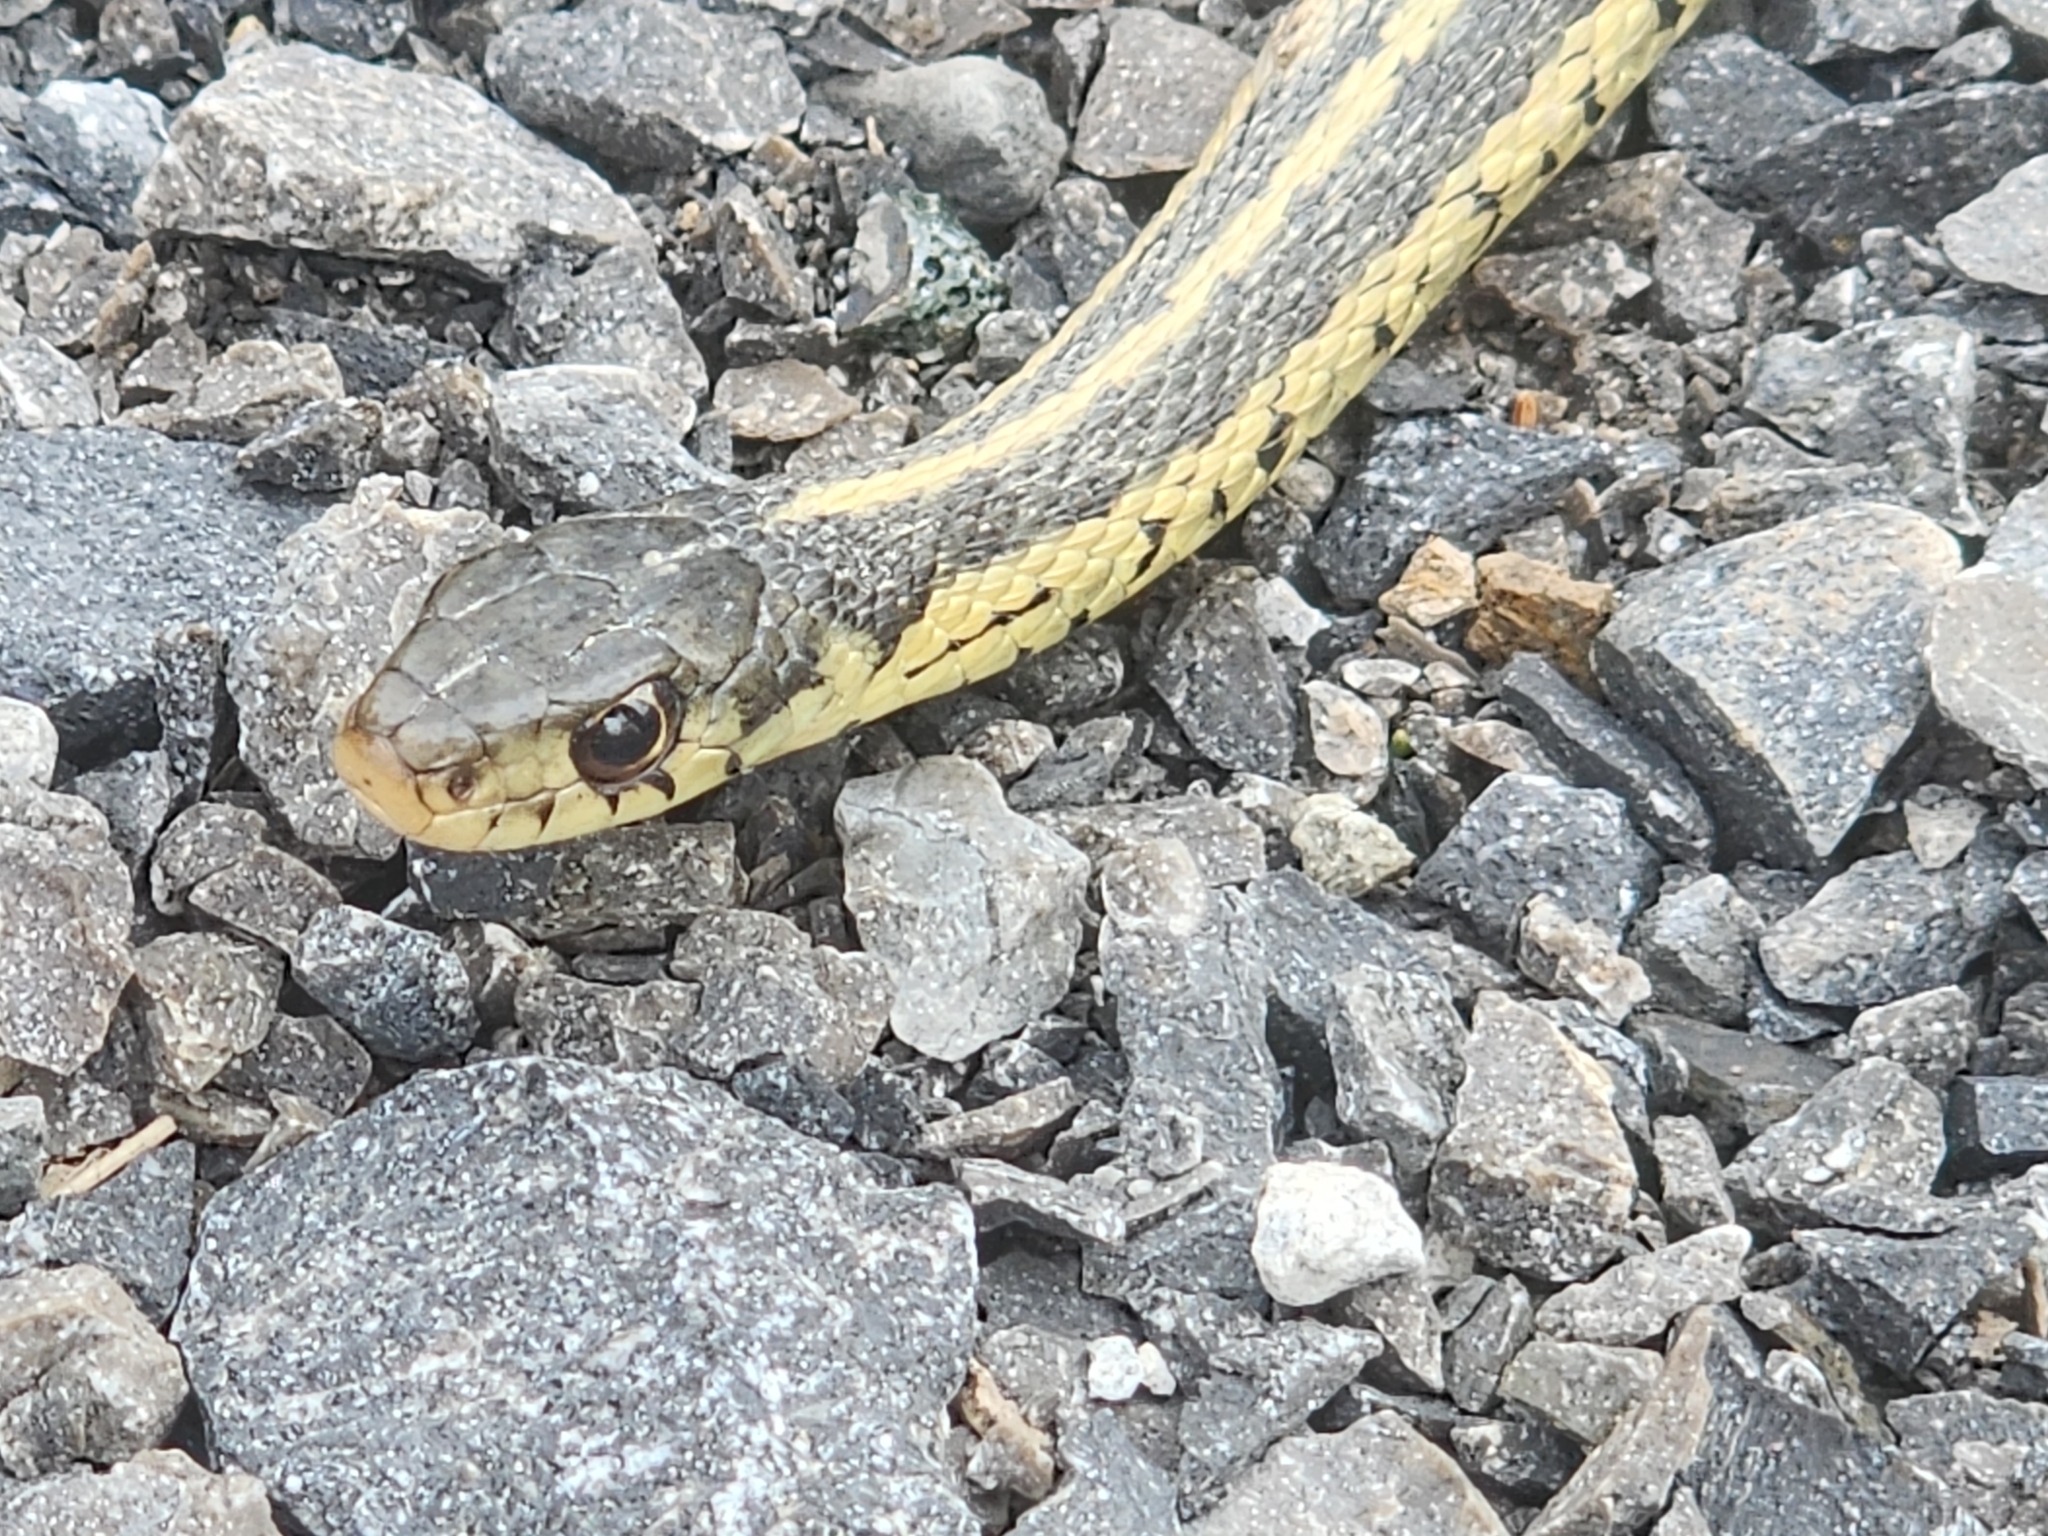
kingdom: Animalia
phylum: Chordata
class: Squamata
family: Colubridae
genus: Thamnophis
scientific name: Thamnophis sirtalis
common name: Common garter snake
